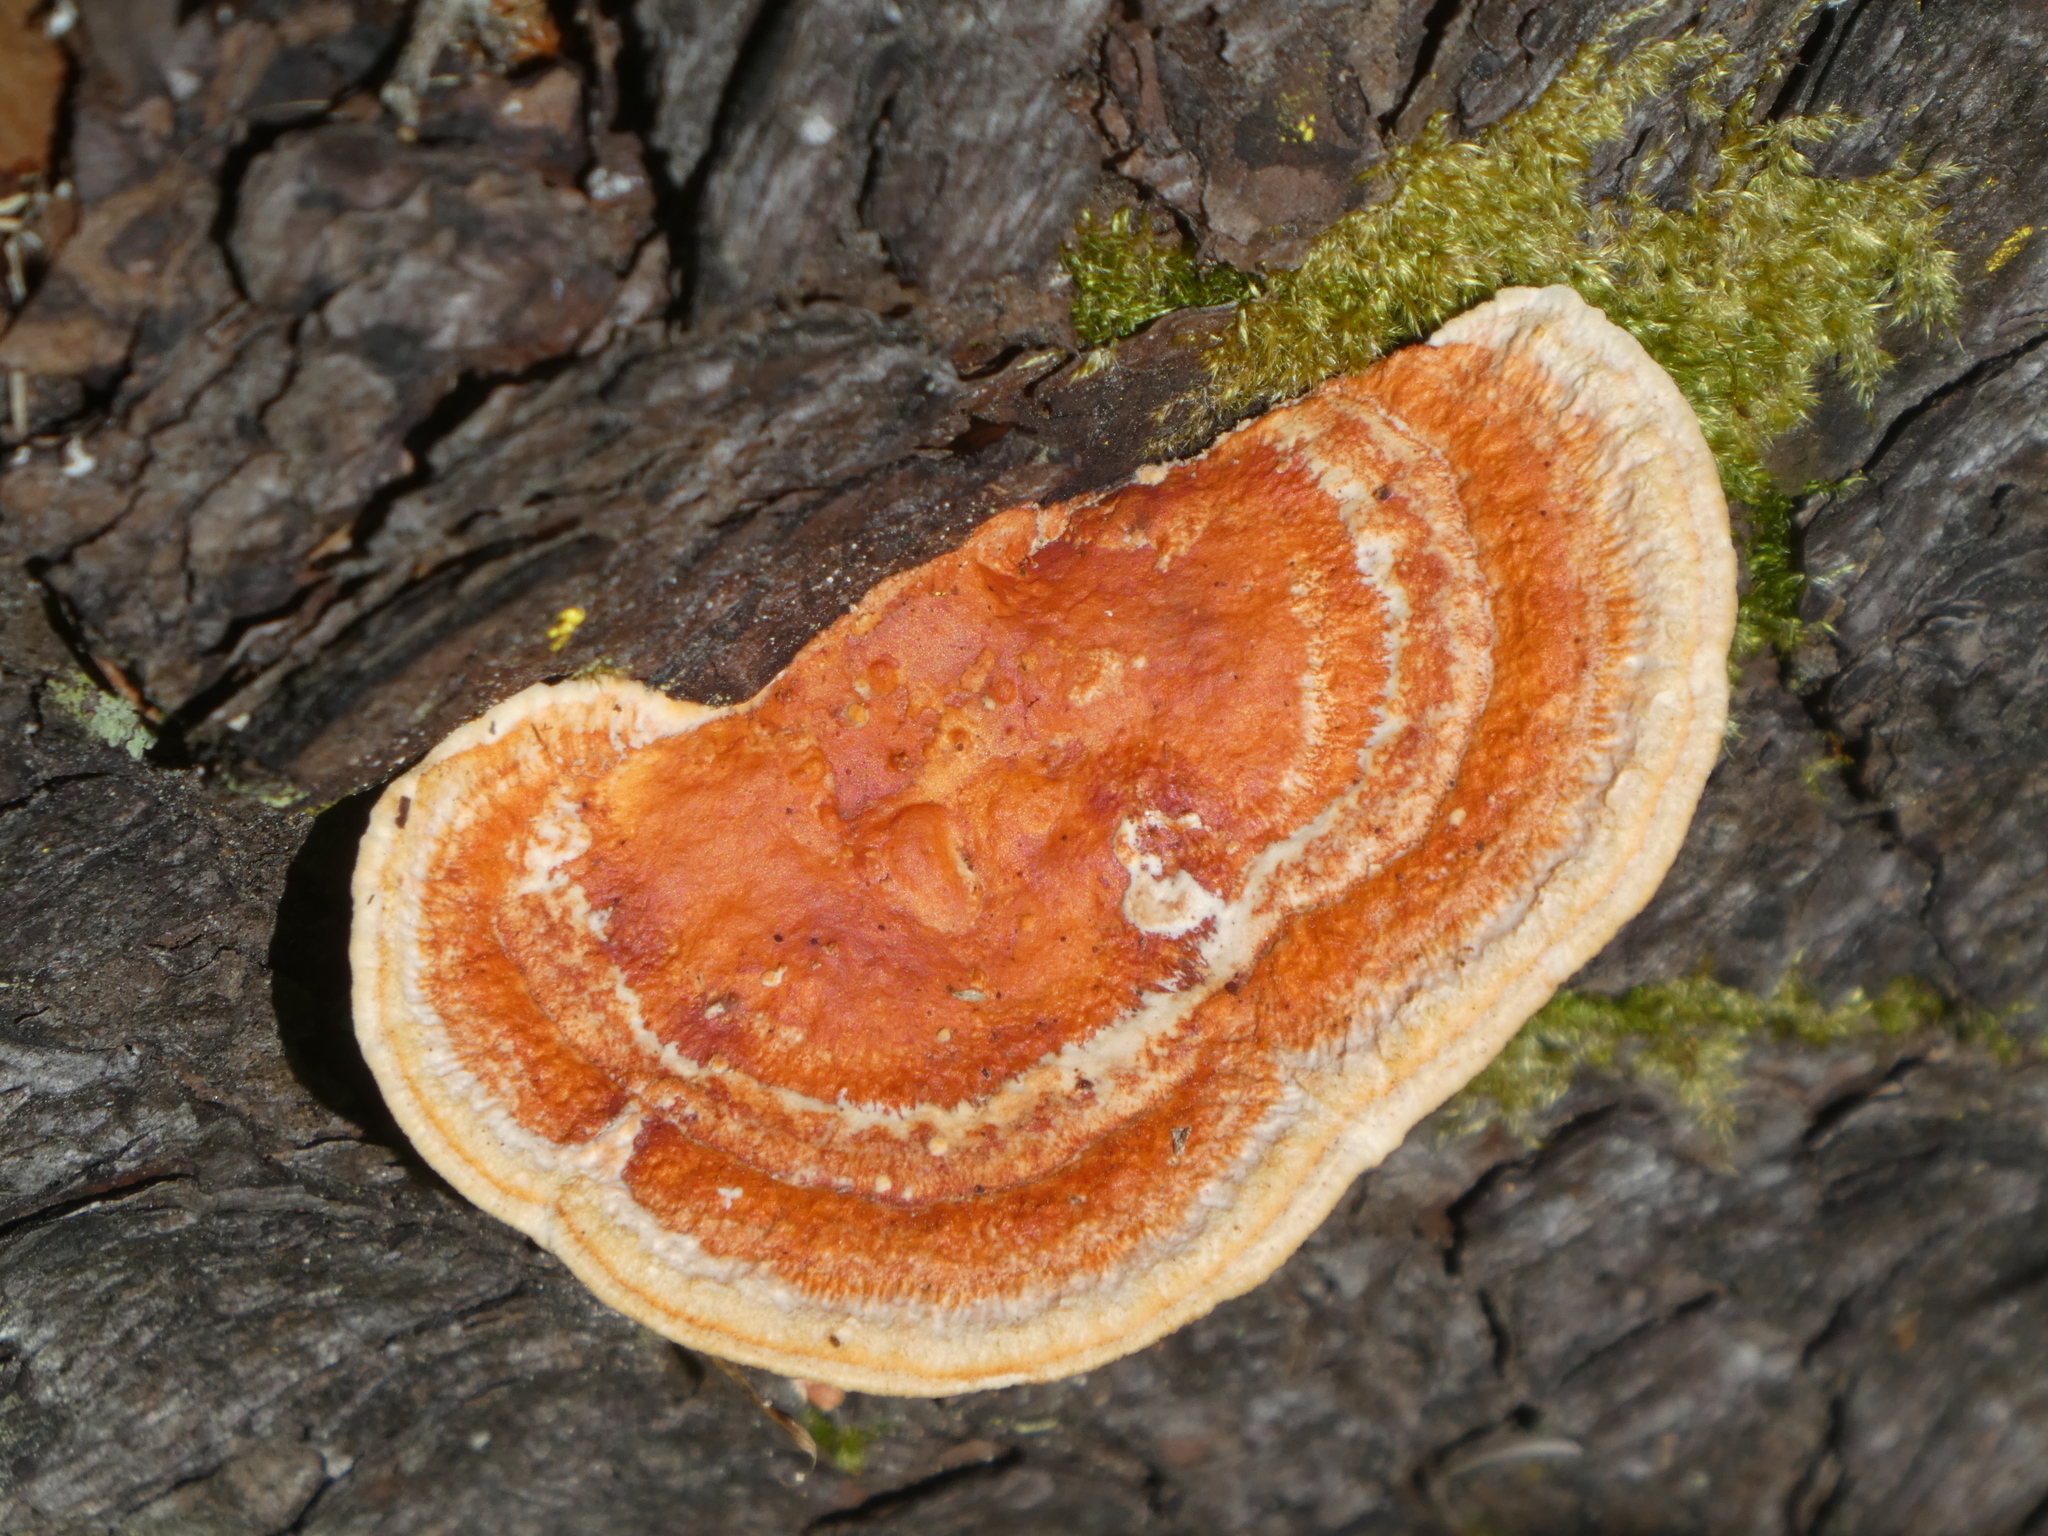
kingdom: Fungi
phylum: Basidiomycota
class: Agaricomycetes
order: Polyporales
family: Polyporaceae
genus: Trametes
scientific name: Trametes coccinea
